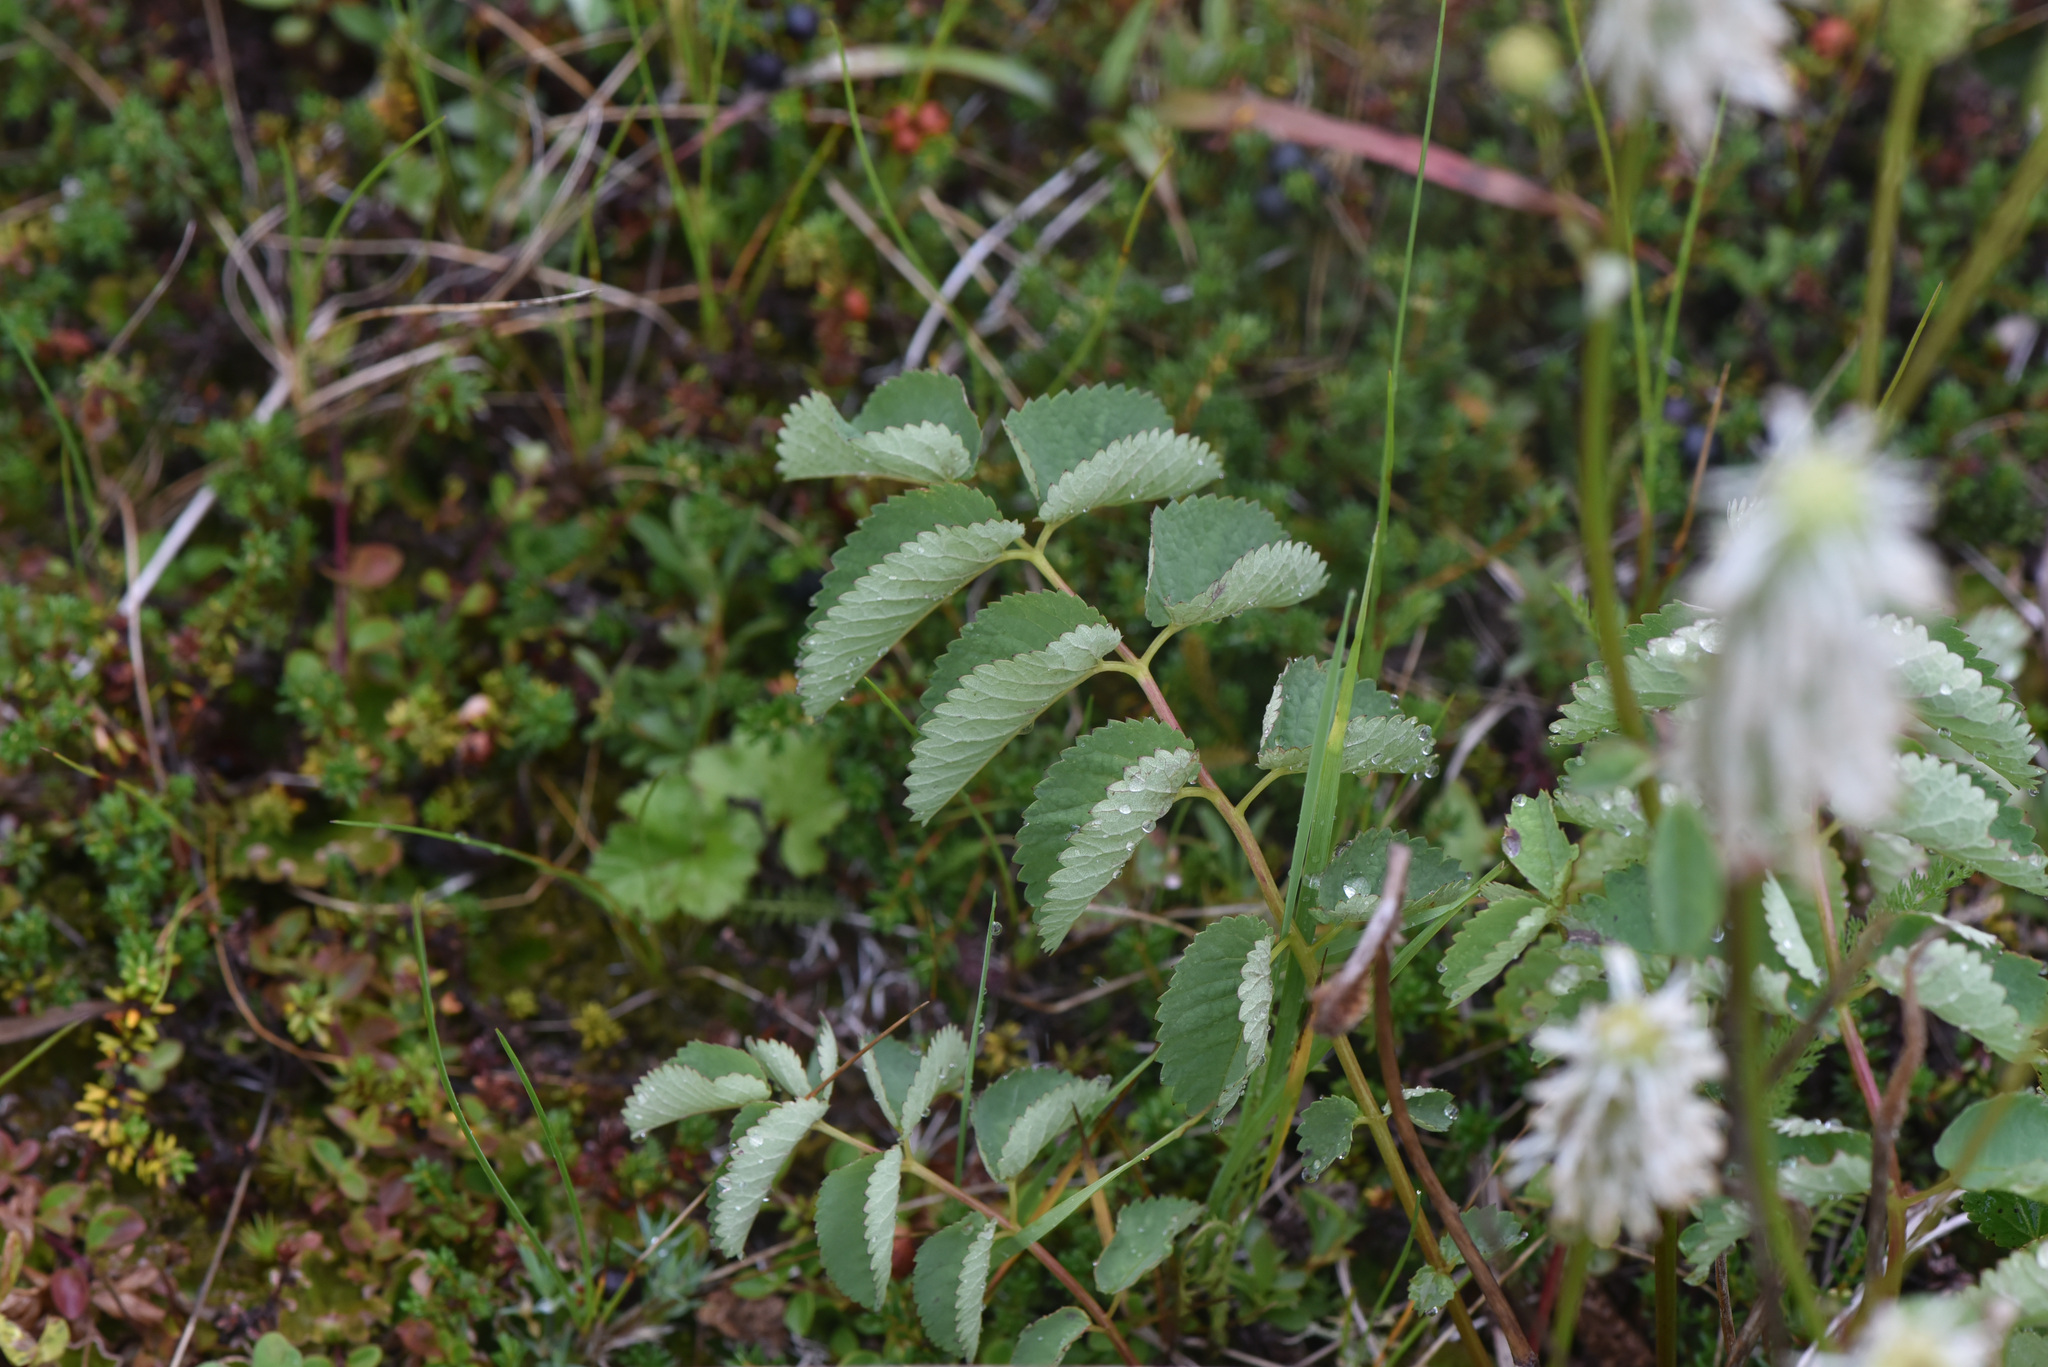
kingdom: Plantae
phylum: Tracheophyta
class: Magnoliopsida
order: Rosales
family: Rosaceae
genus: Sanguisorba
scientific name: Sanguisorba stipulata
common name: Sitka burnet
